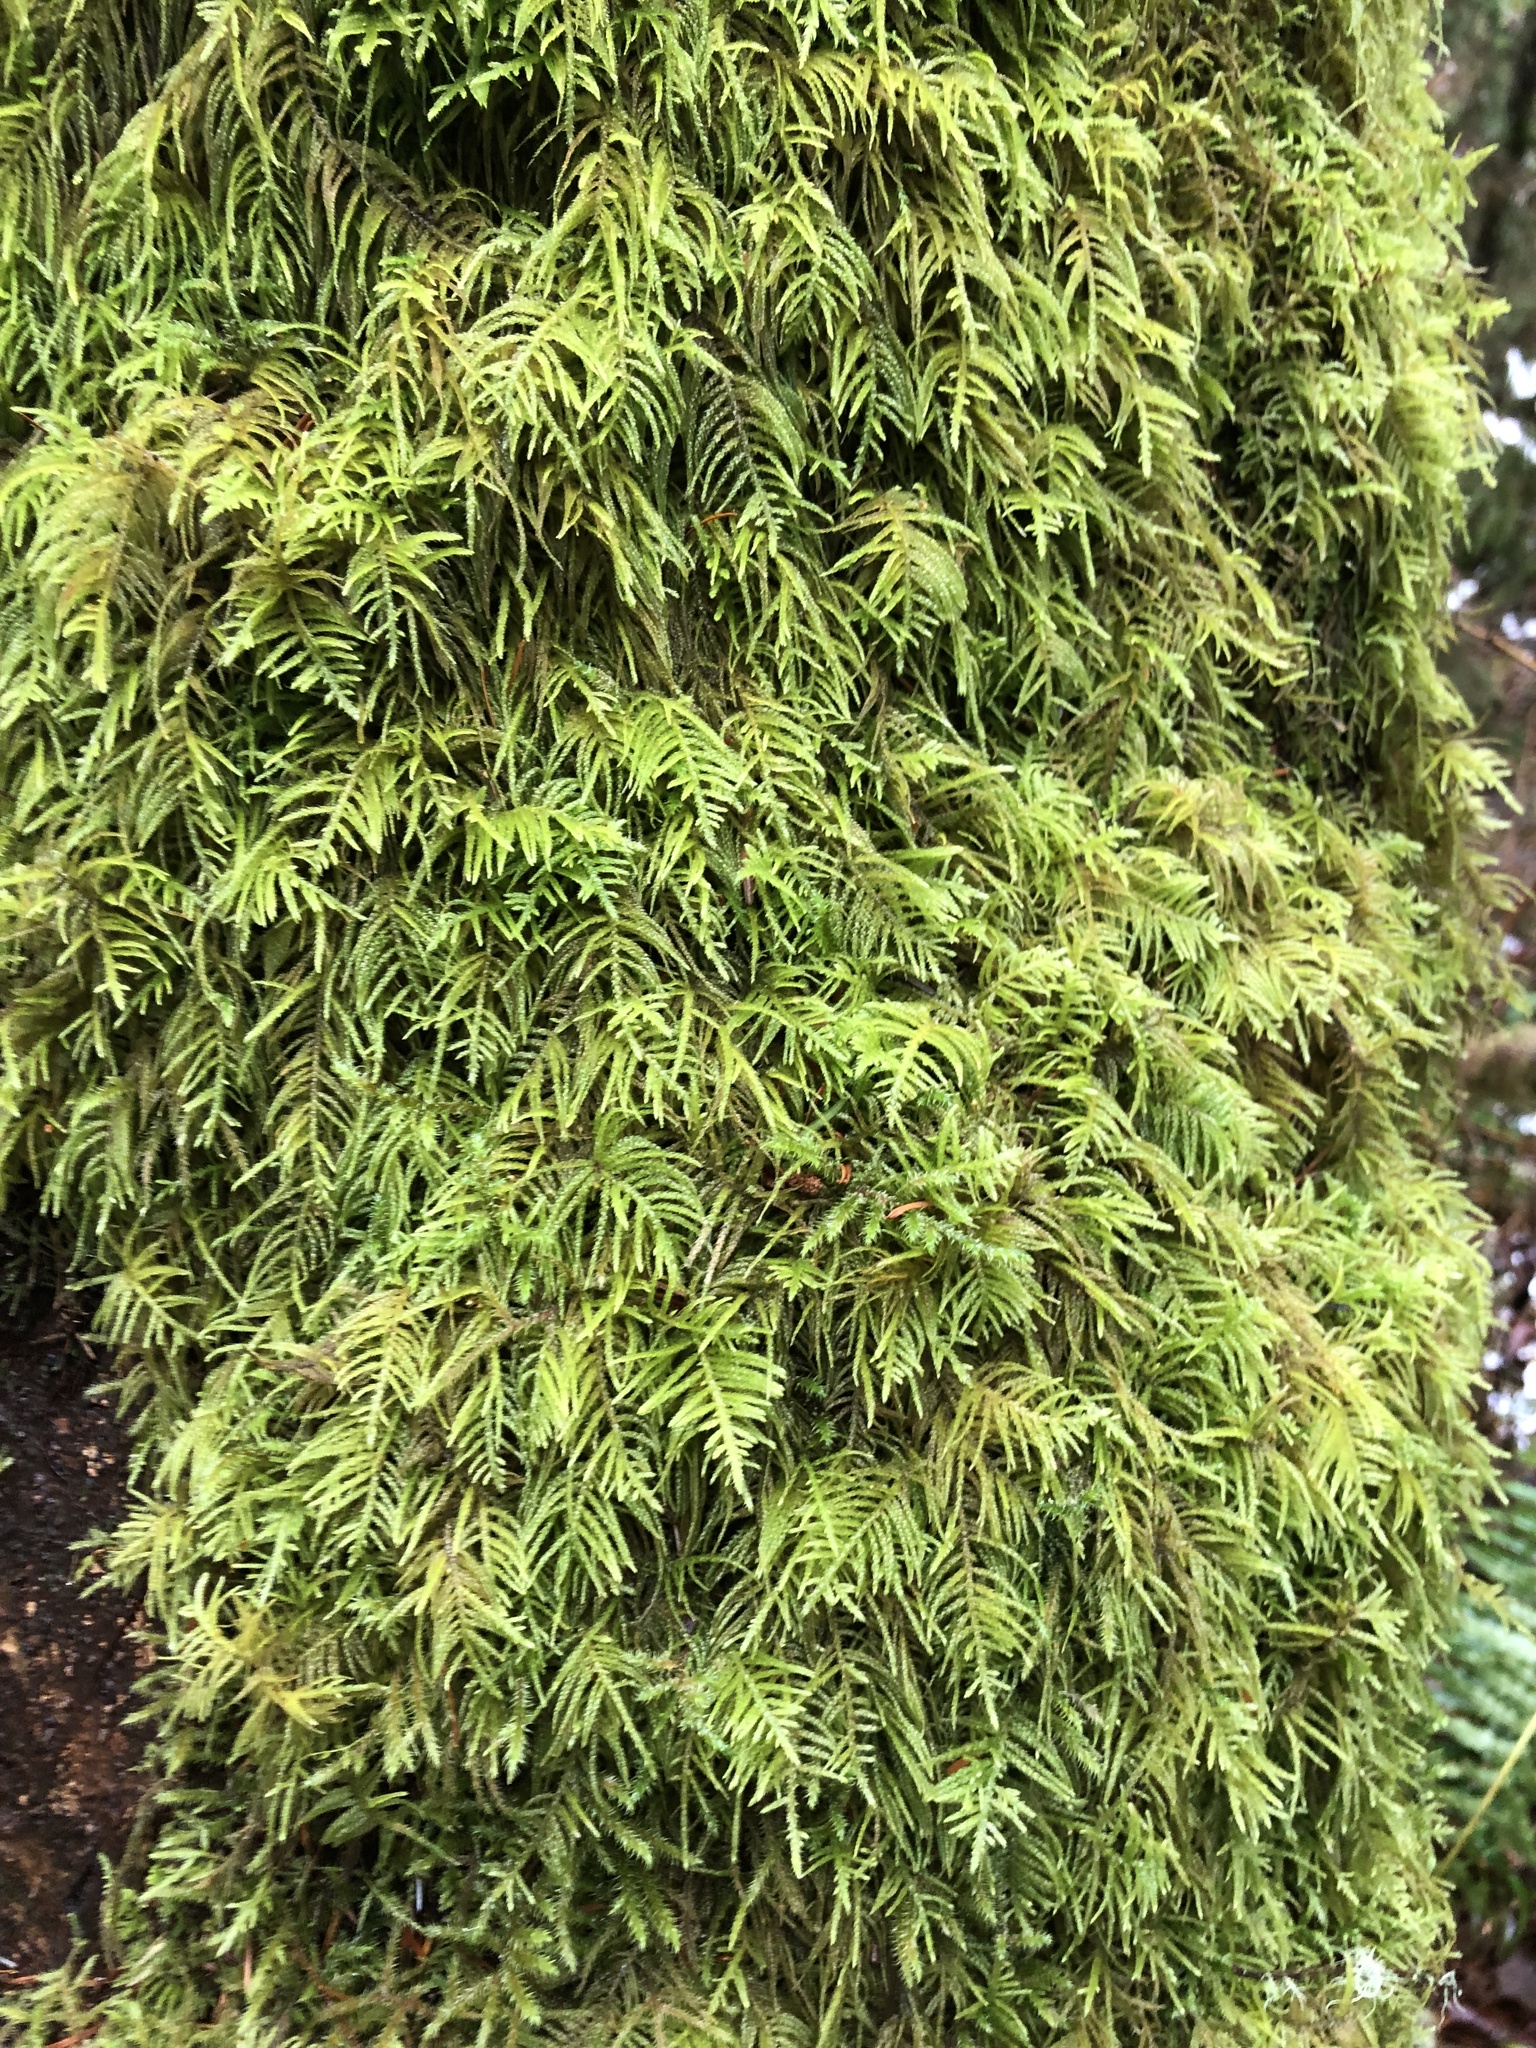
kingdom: Plantae
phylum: Bryophyta
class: Bryopsida
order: Hypnales
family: Brachytheciaceae
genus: Kindbergia
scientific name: Kindbergia oregana
